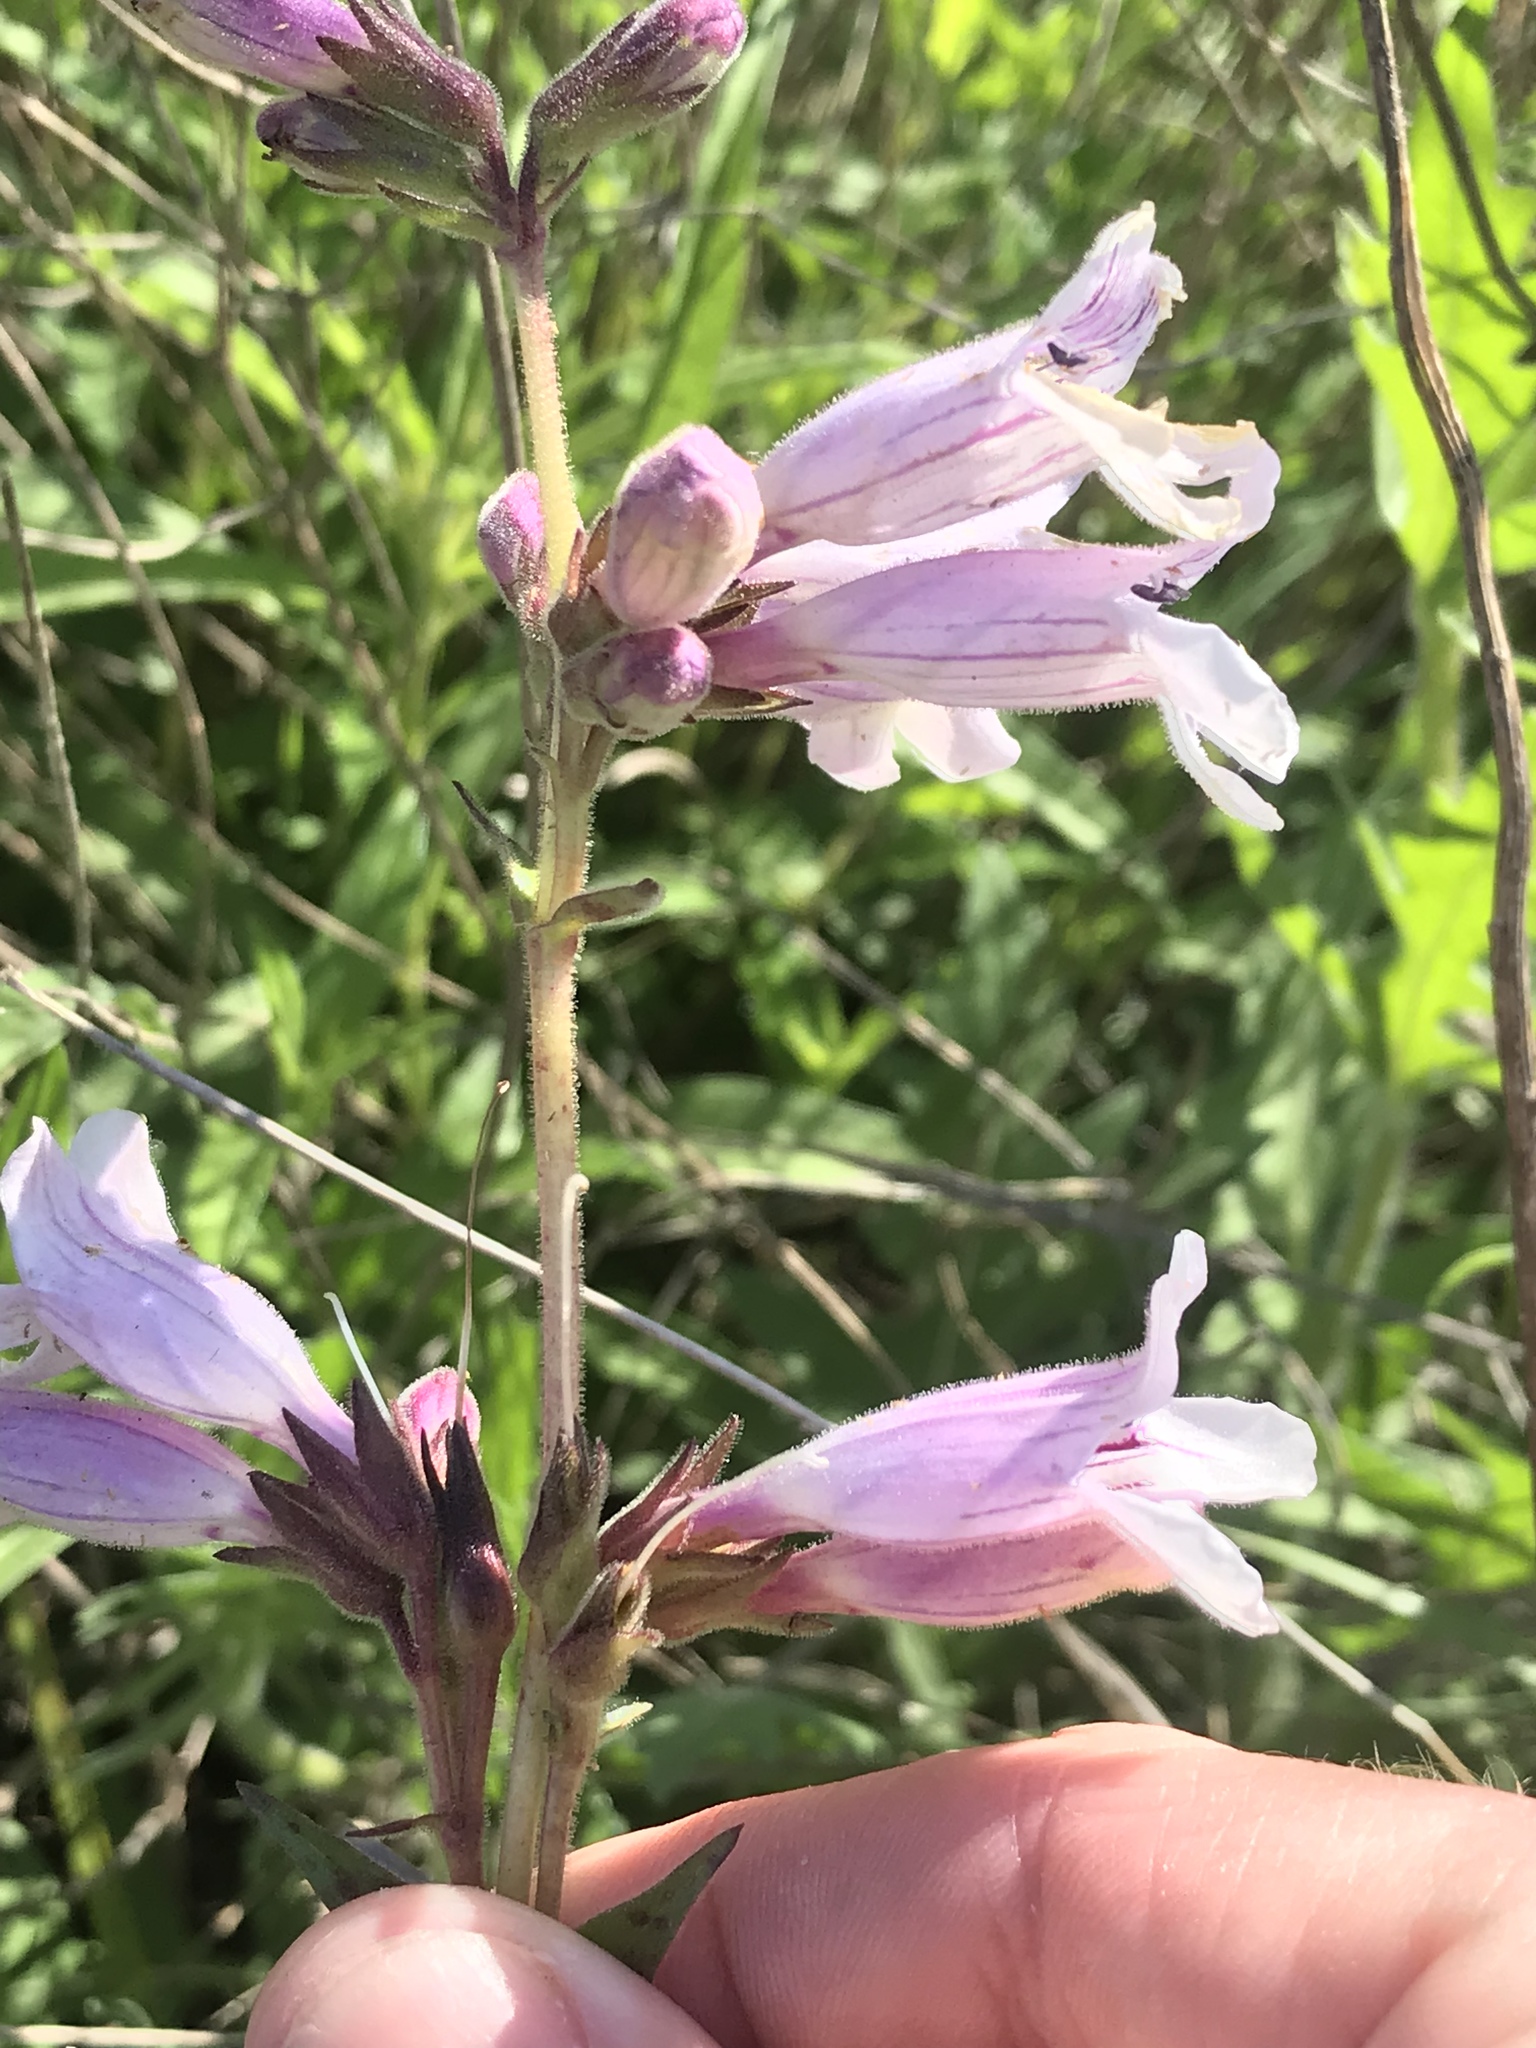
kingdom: Plantae
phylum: Tracheophyta
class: Magnoliopsida
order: Lamiales
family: Plantaginaceae
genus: Penstemon
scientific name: Penstemon cobaea
